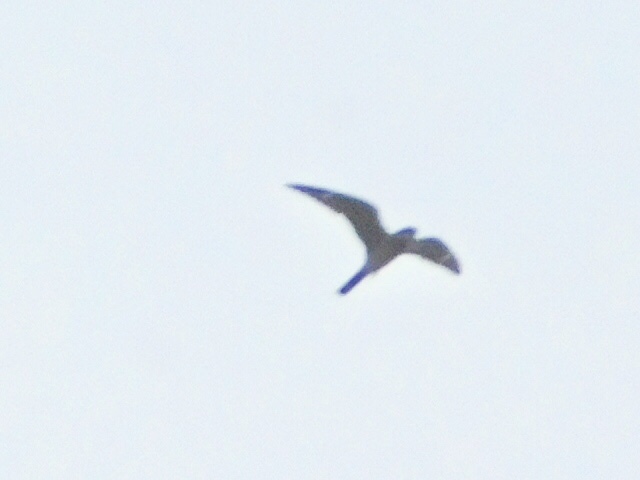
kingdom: Animalia
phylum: Chordata
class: Aves
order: Caprimulgiformes
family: Caprimulgidae
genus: Chordeiles
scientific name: Chordeiles minor
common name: Common nighthawk
